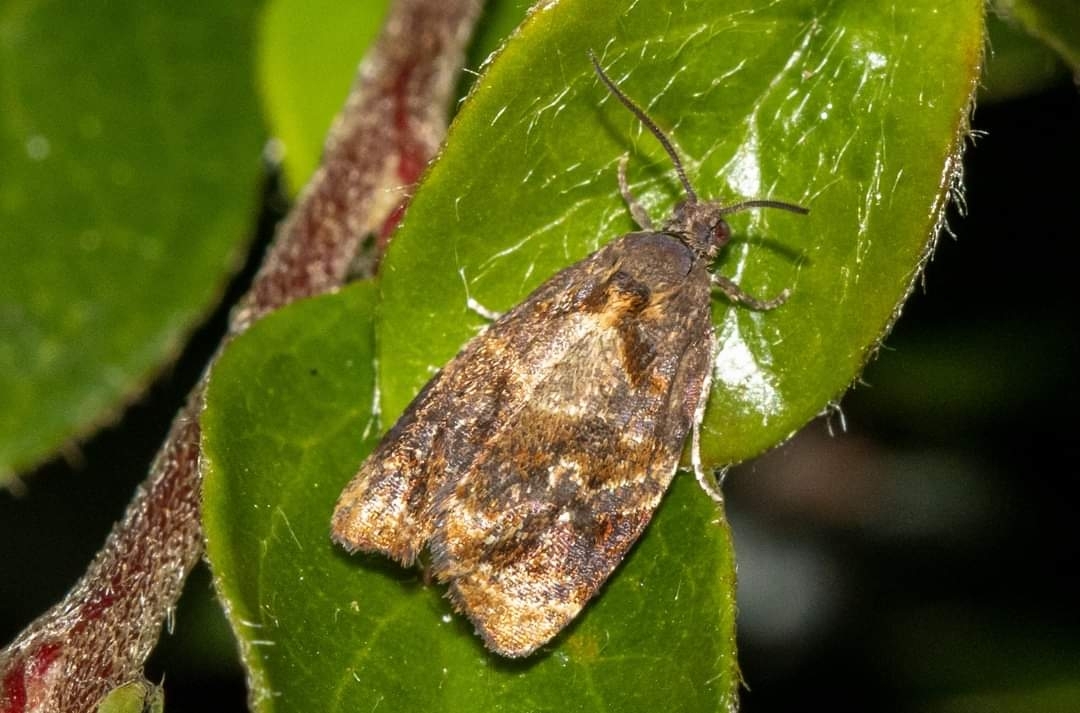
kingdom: Animalia
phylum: Arthropoda
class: Insecta
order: Lepidoptera
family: Tortricidae
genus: Ditula
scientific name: Ditula angustiorana
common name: Red-barred tortrix
